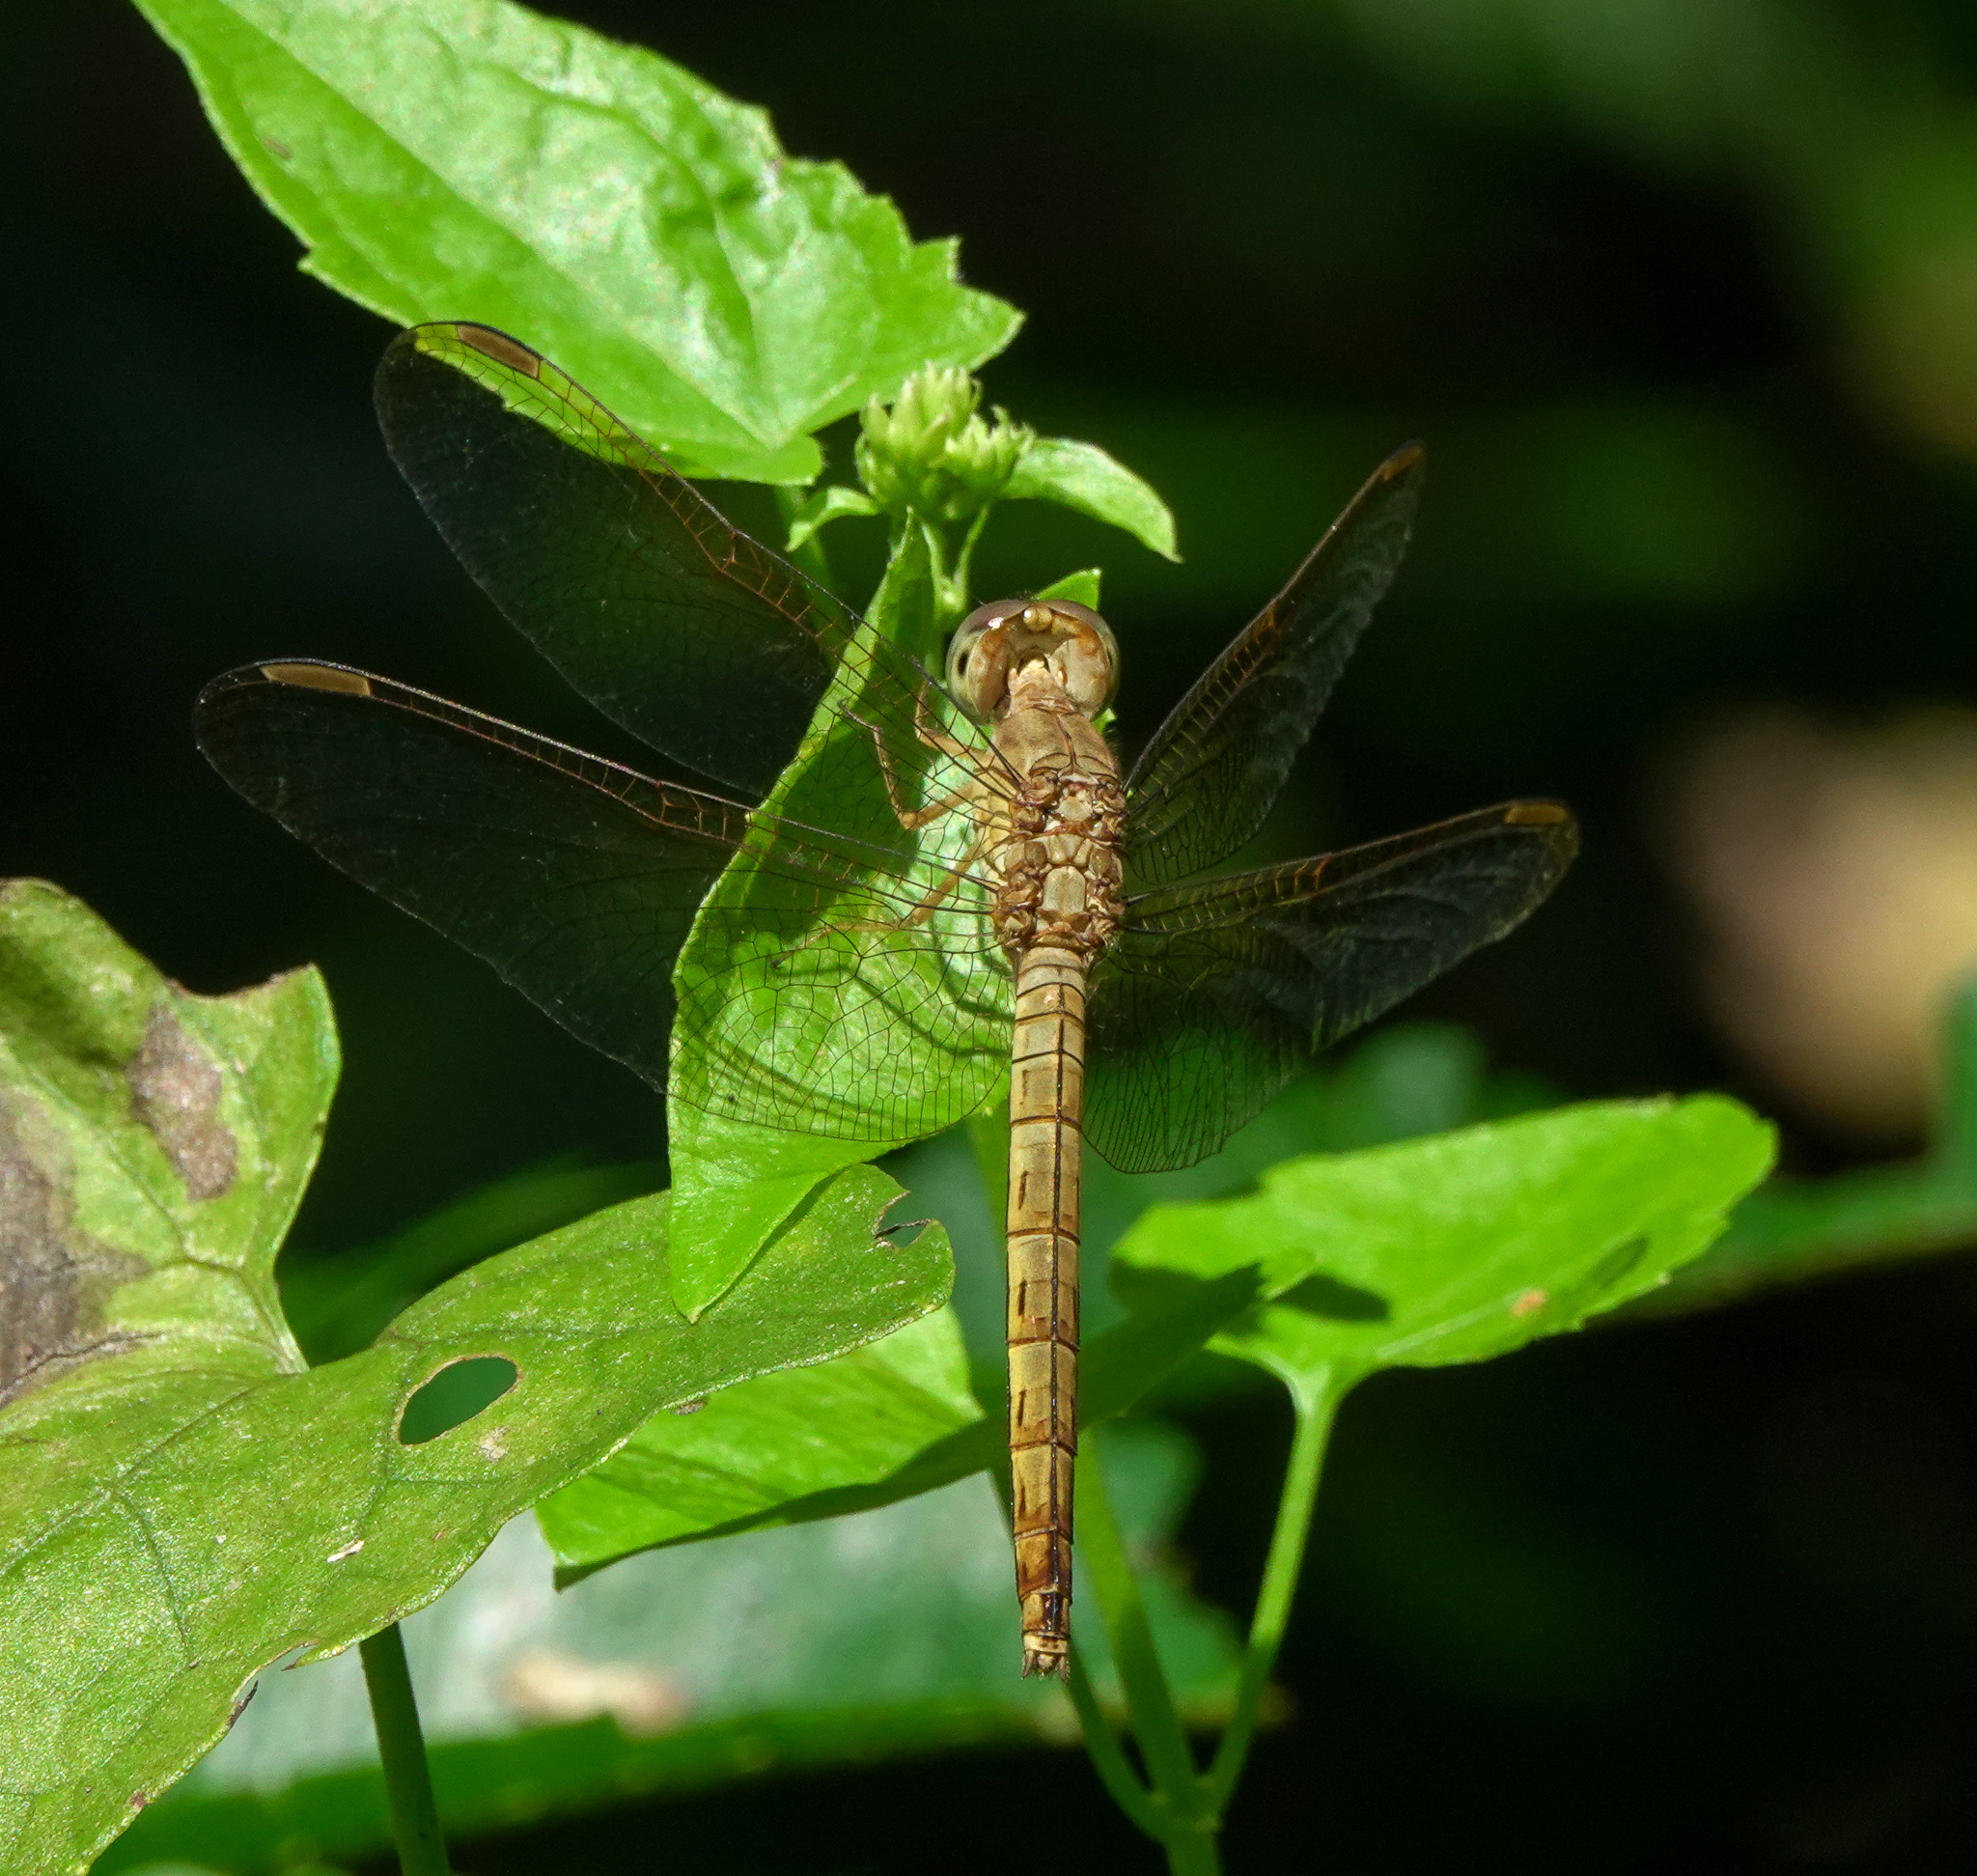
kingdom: Animalia
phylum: Arthropoda
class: Insecta
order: Odonata
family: Libellulidae
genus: Neurothemis
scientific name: Neurothemis fluctuans
